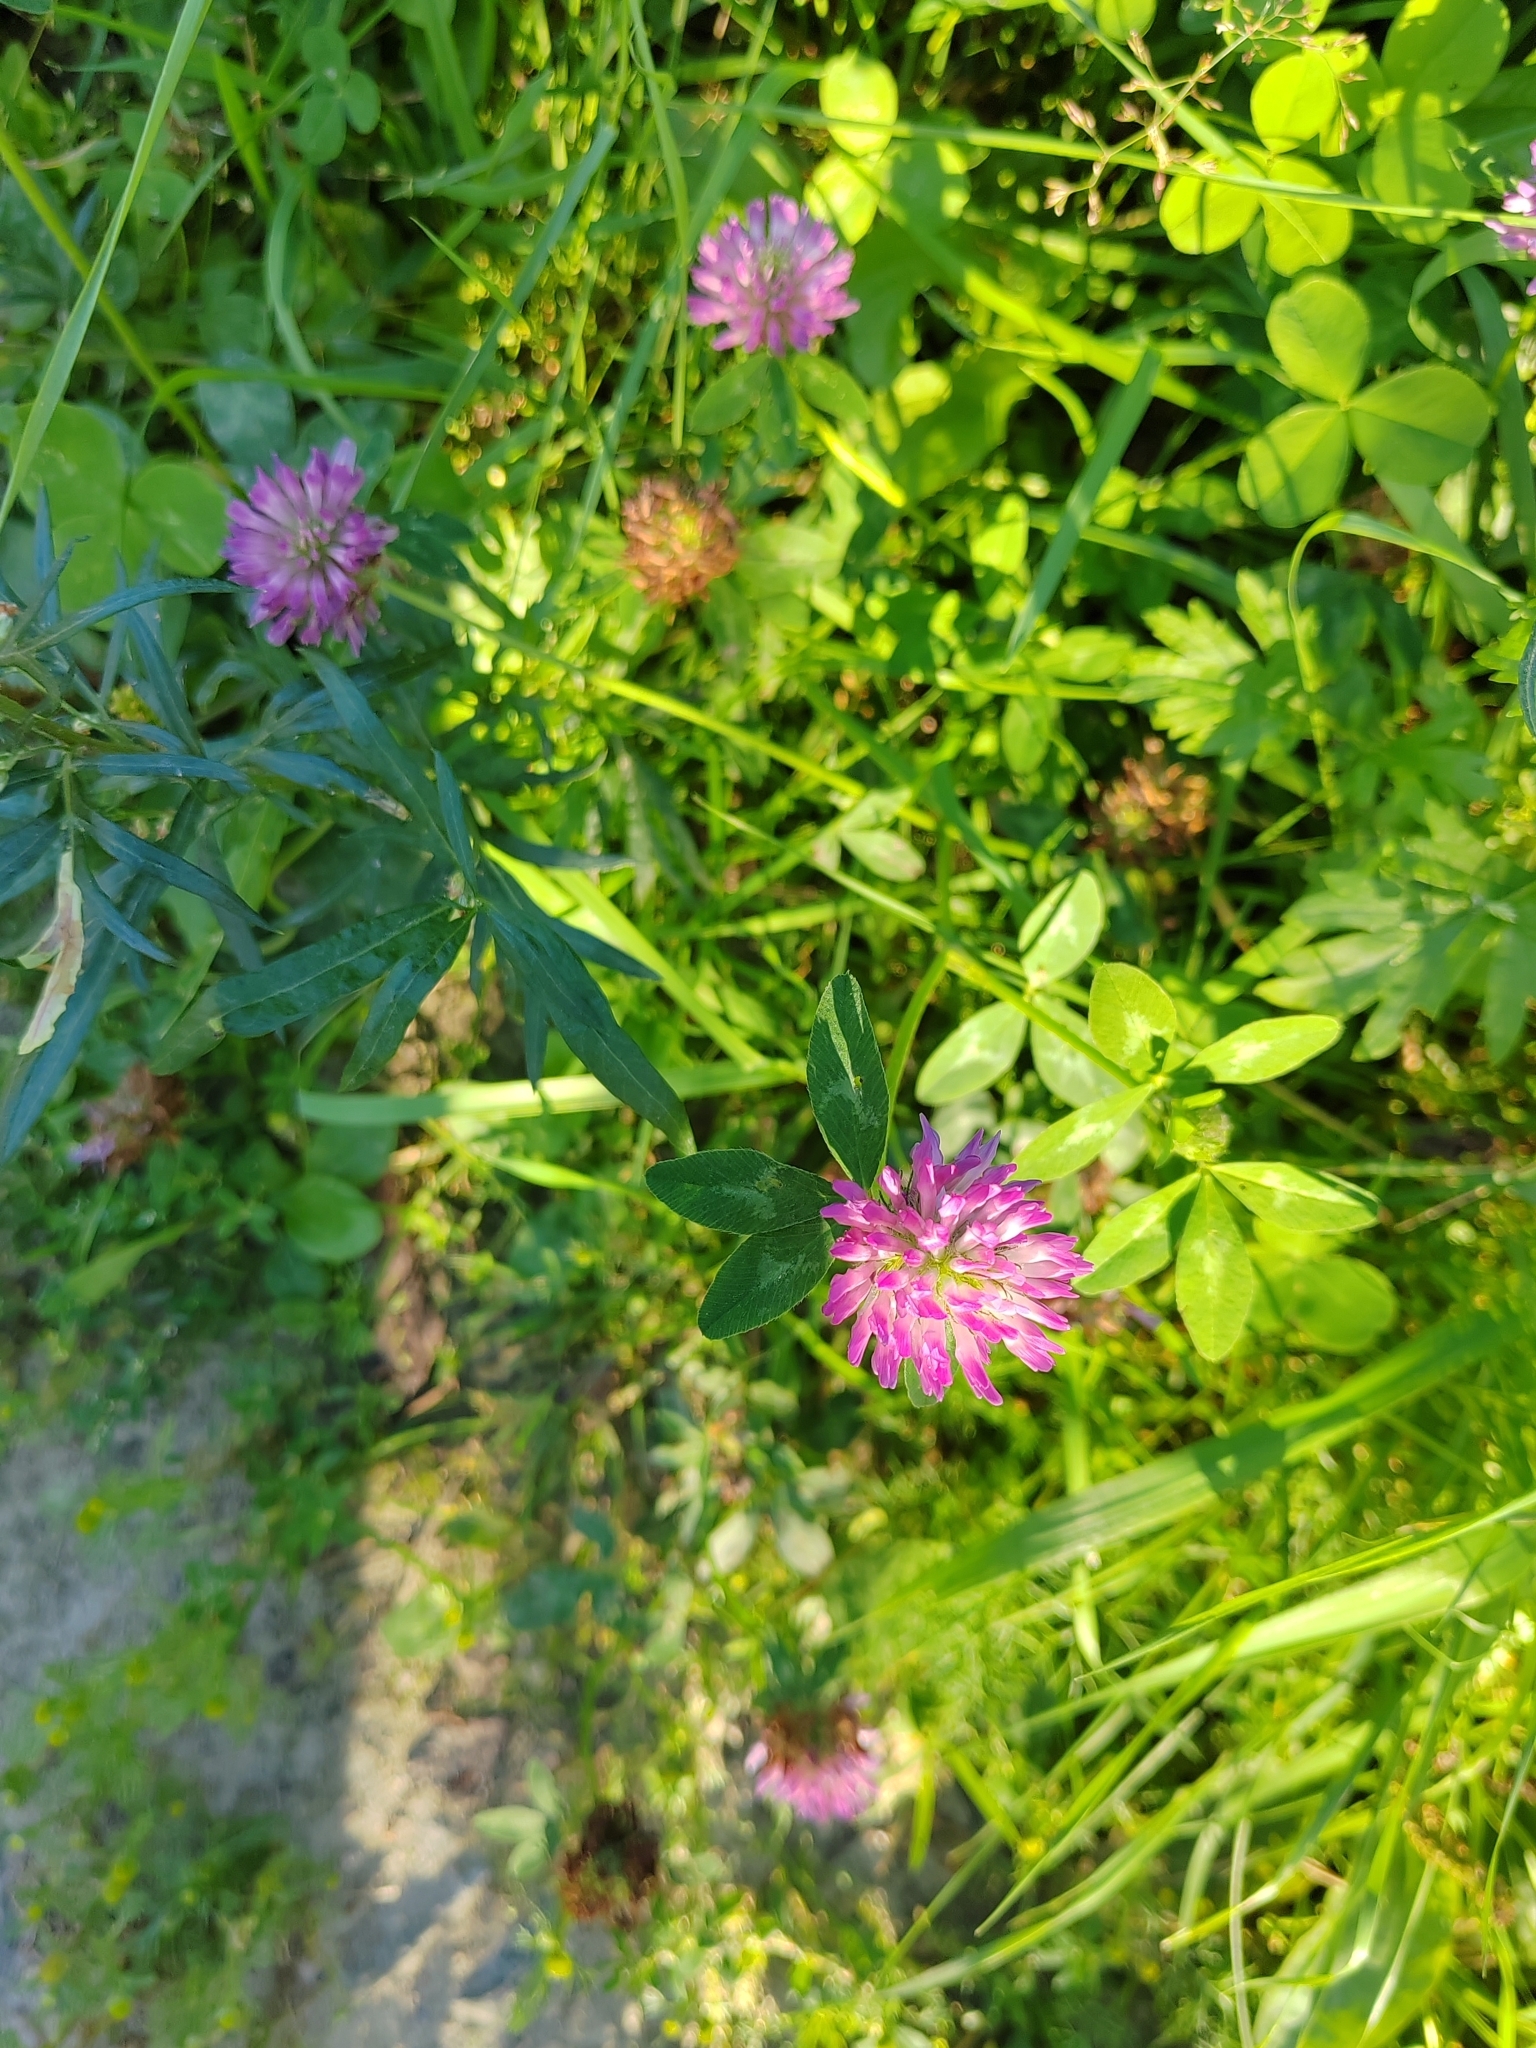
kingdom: Plantae
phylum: Tracheophyta
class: Magnoliopsida
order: Fabales
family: Fabaceae
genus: Trifolium
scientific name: Trifolium pratense
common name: Red clover
